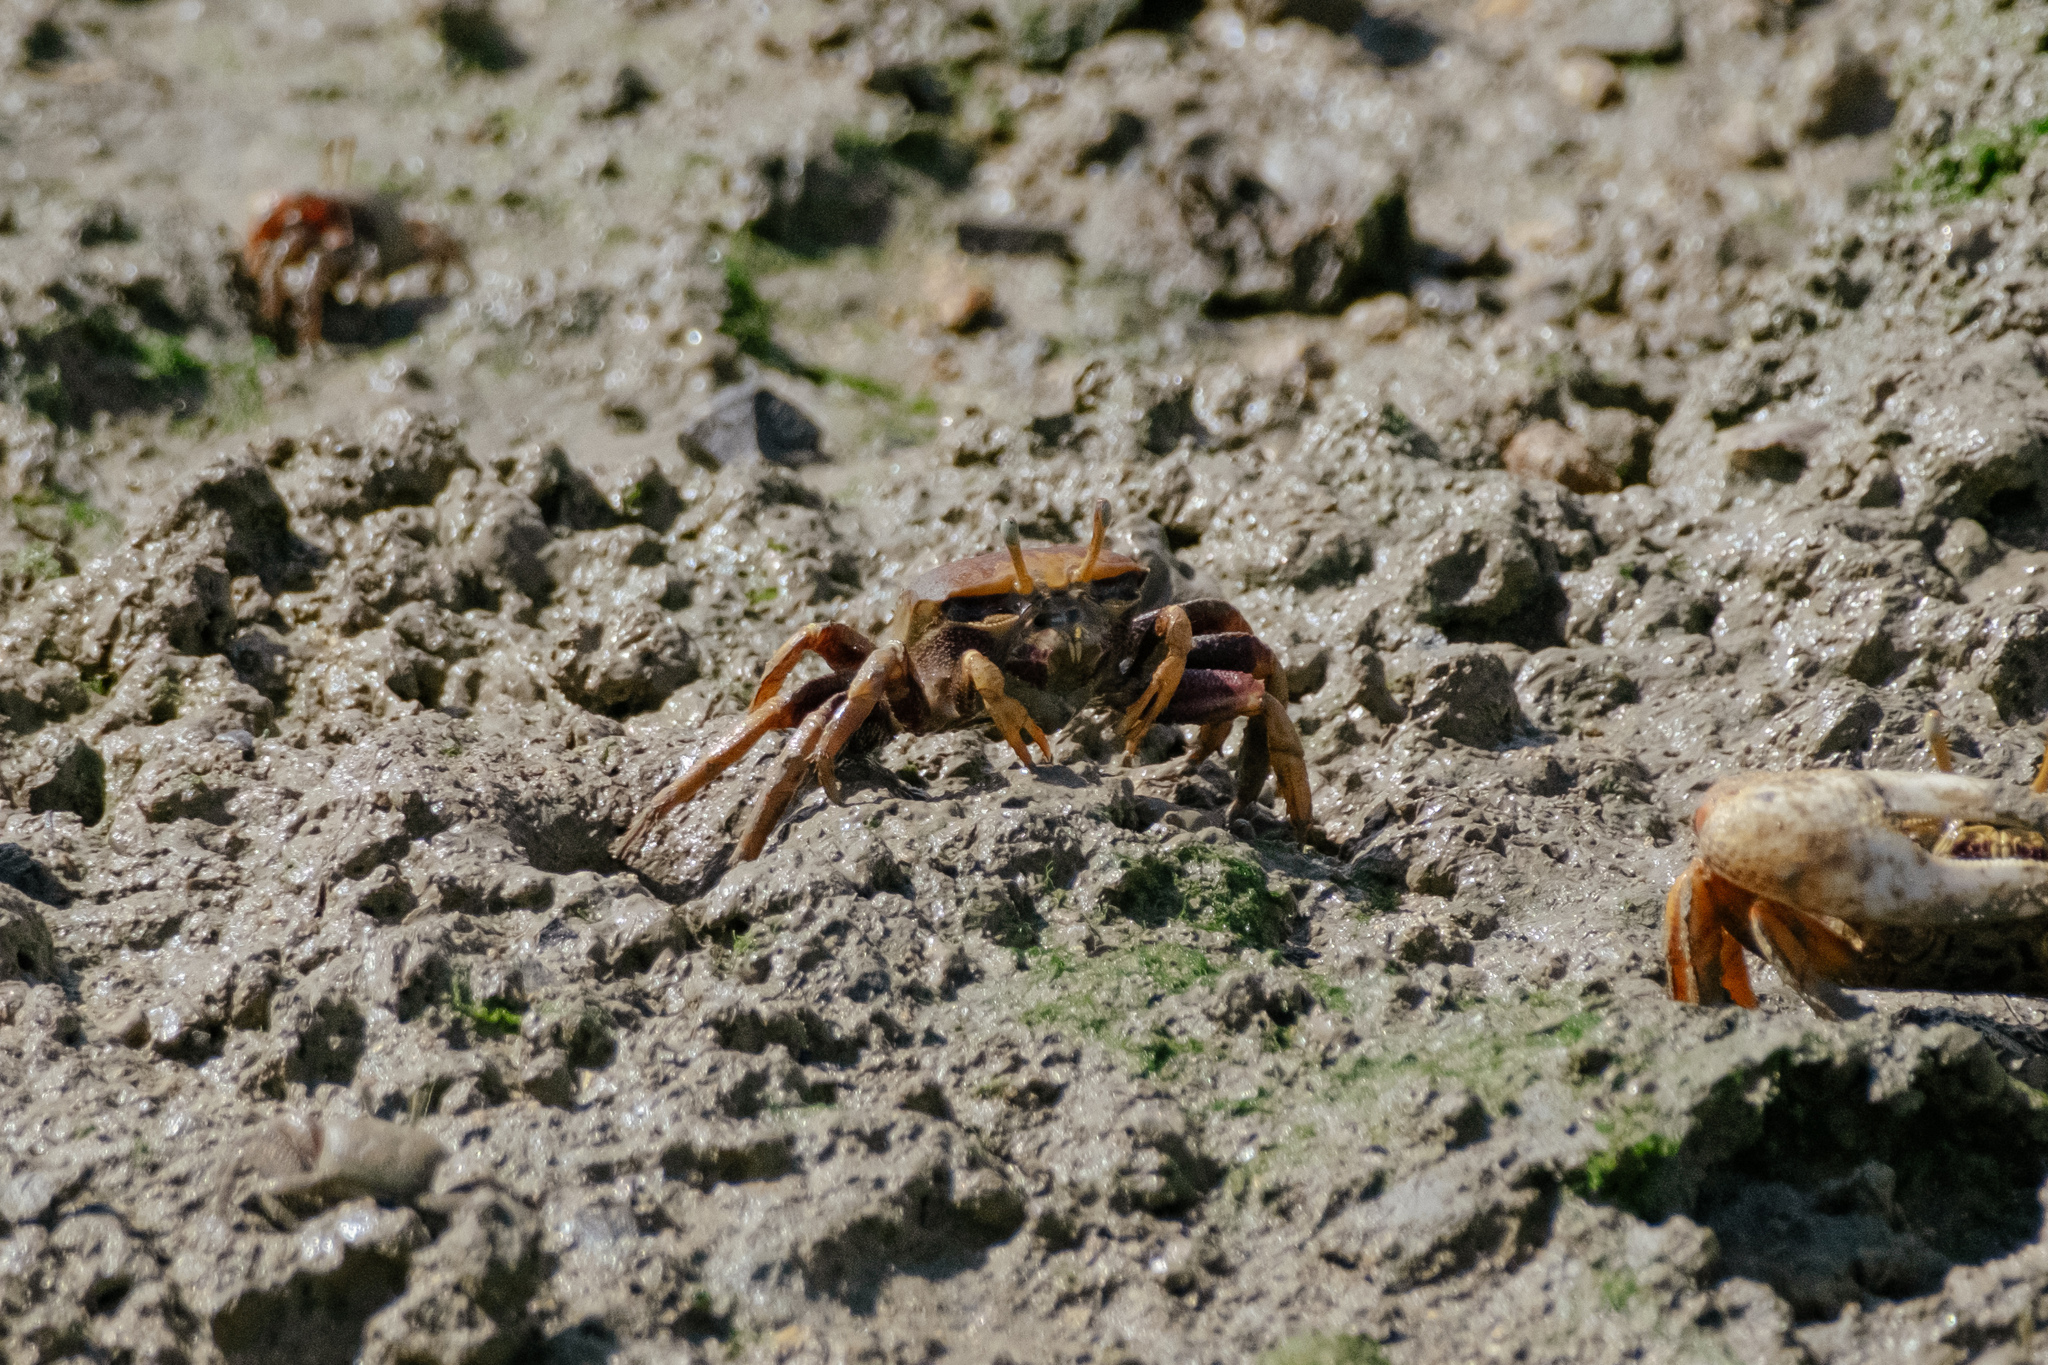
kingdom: Animalia
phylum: Arthropoda
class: Malacostraca
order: Decapoda
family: Ocypodidae
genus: Afruca
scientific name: Afruca tangeri
